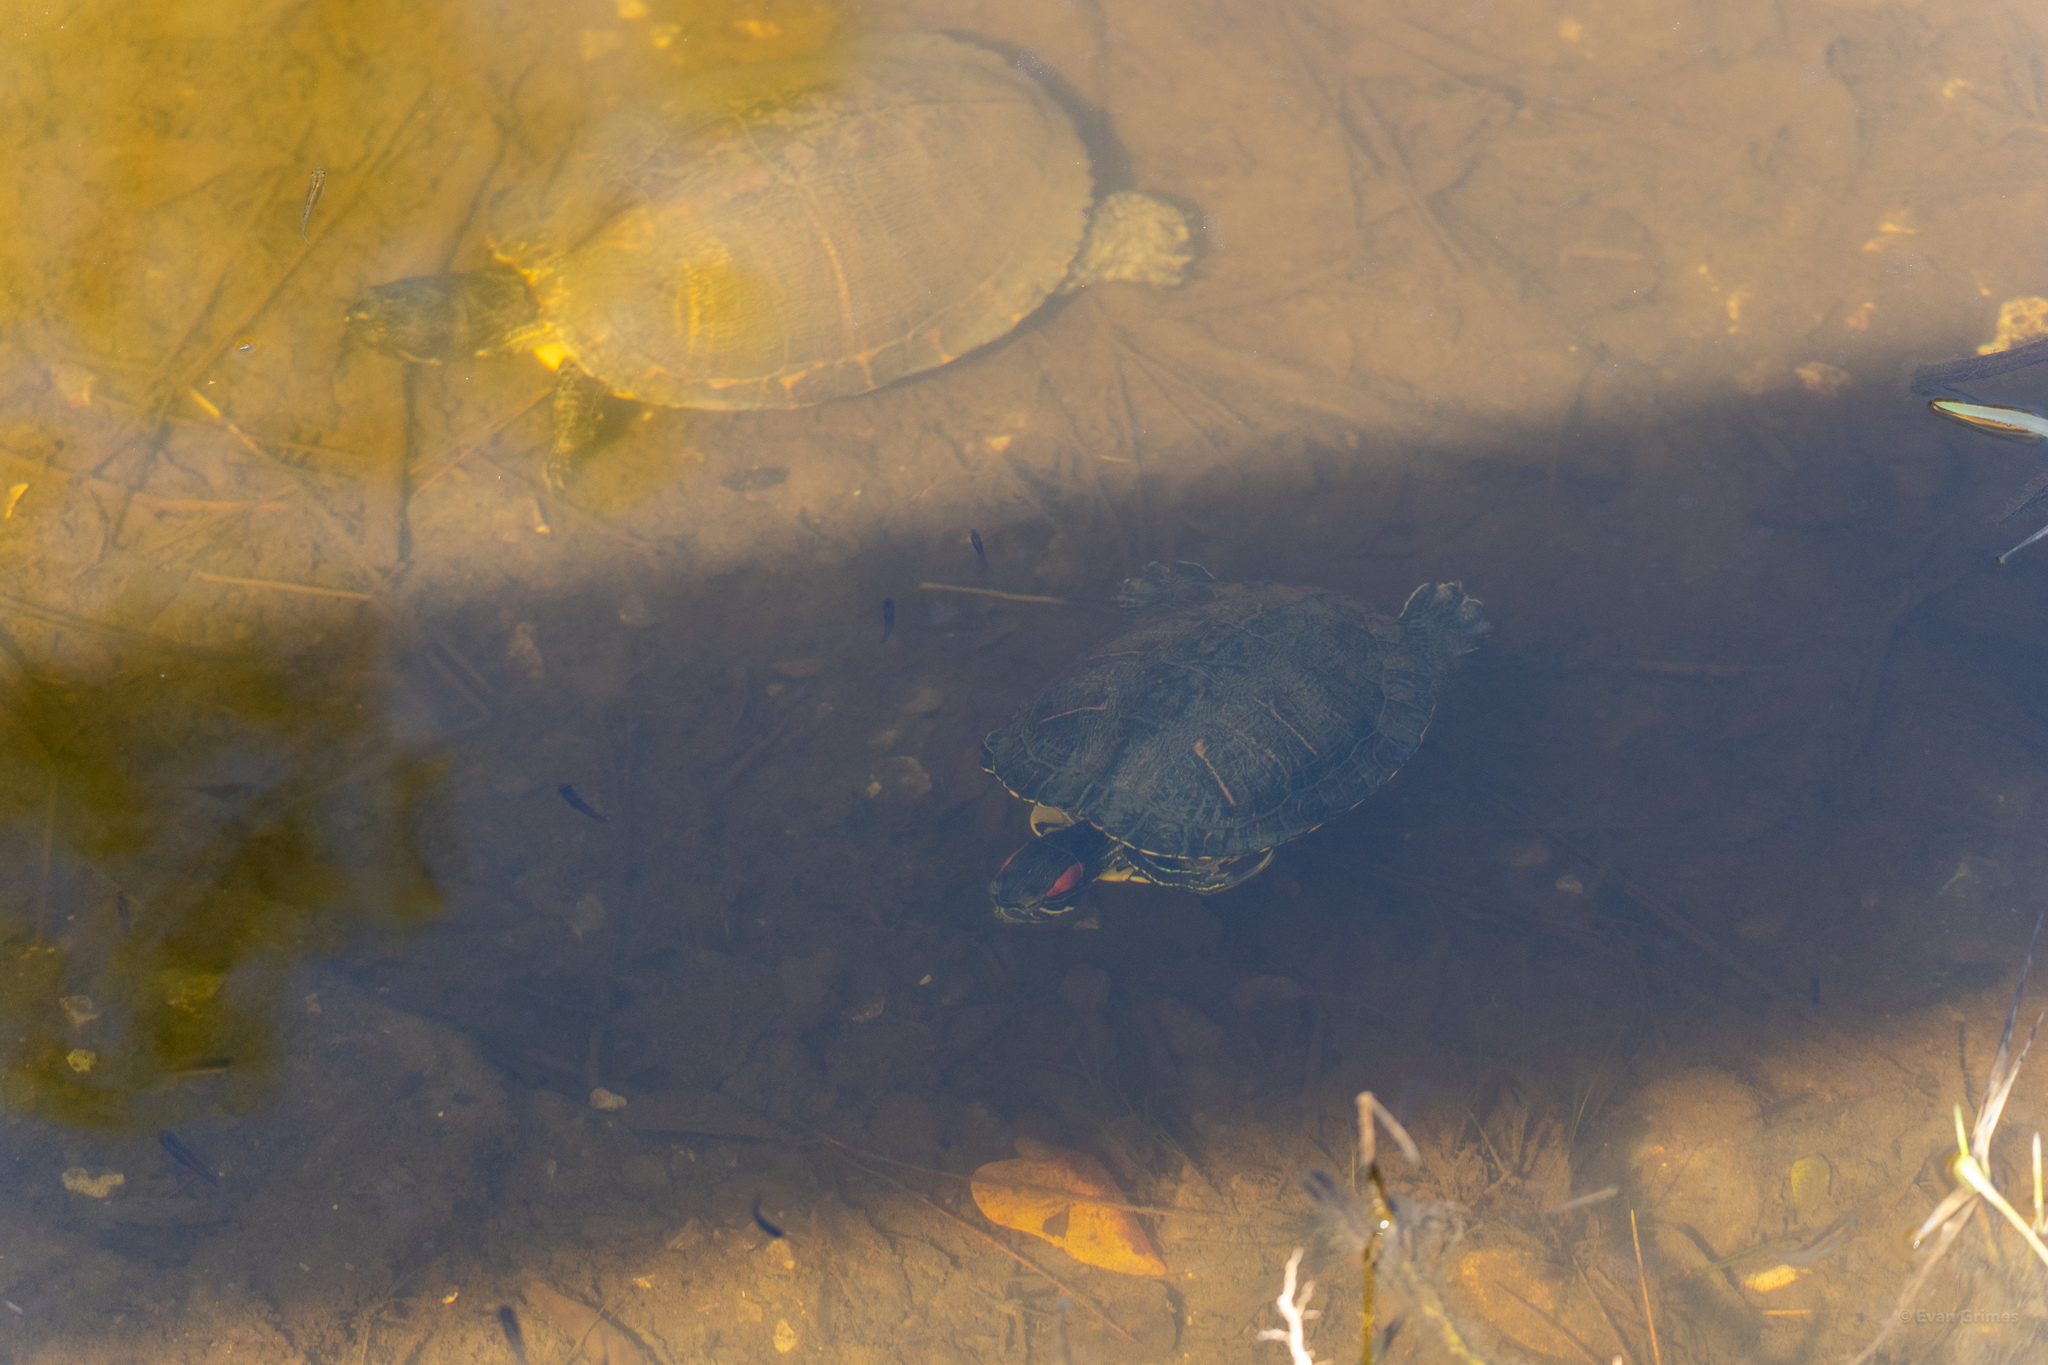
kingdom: Animalia
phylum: Chordata
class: Testudines
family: Emydidae
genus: Trachemys
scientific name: Trachemys scripta
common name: Slider
